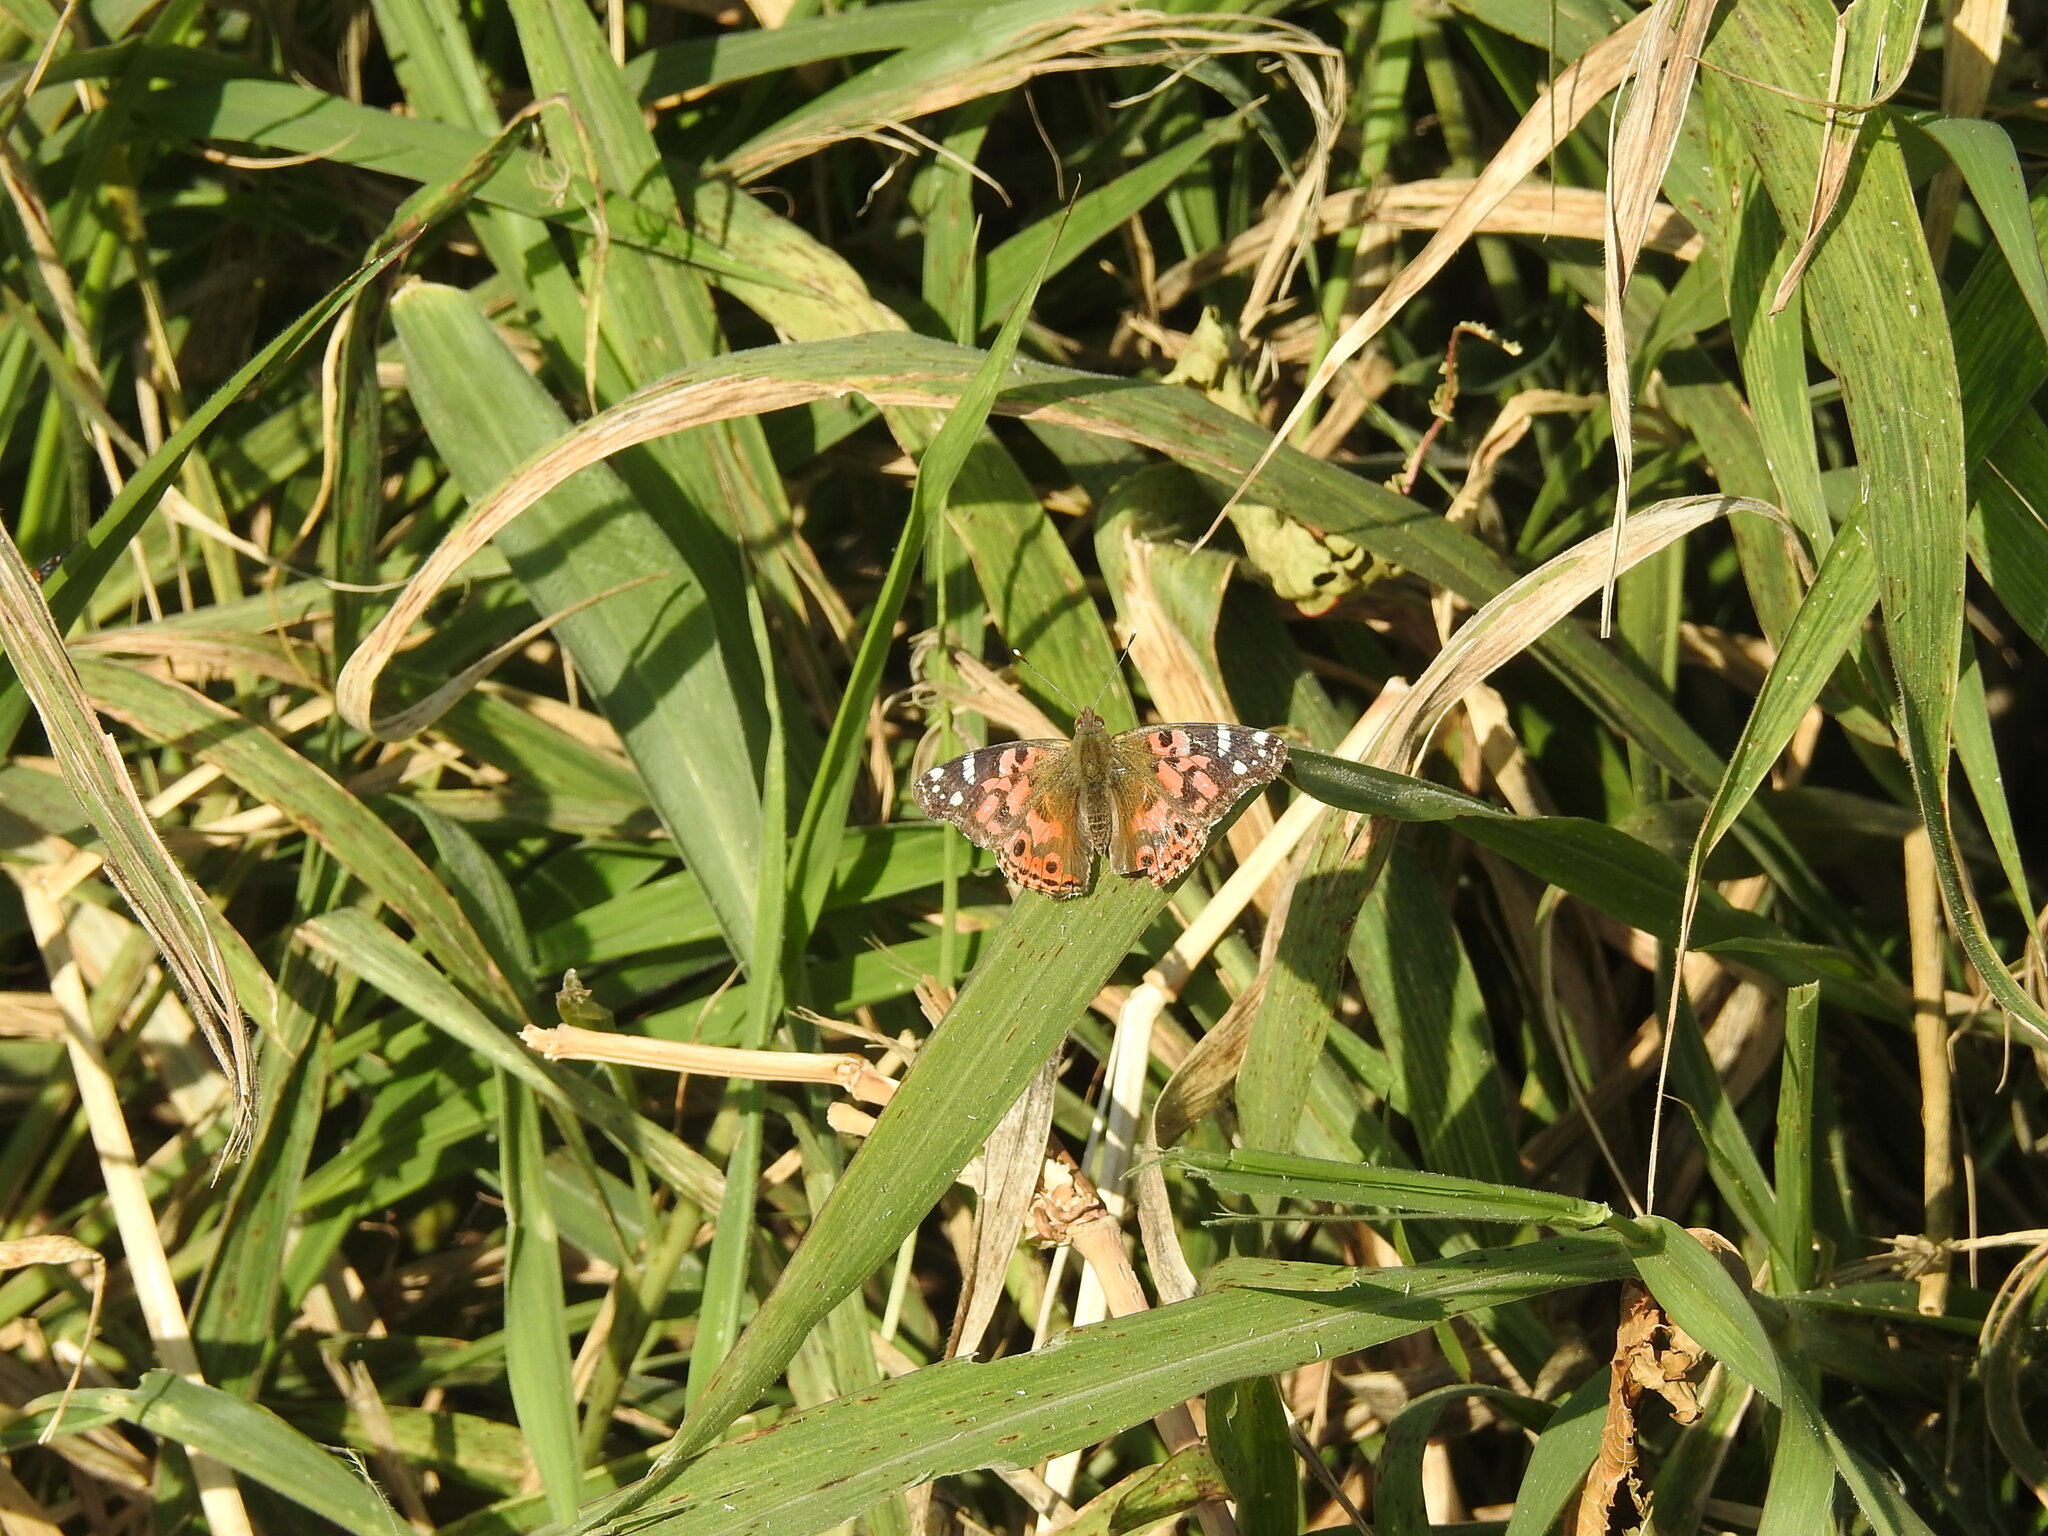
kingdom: Animalia
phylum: Arthropoda
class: Insecta
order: Lepidoptera
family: Nymphalidae
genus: Vanessa
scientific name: Vanessa braziliensis
